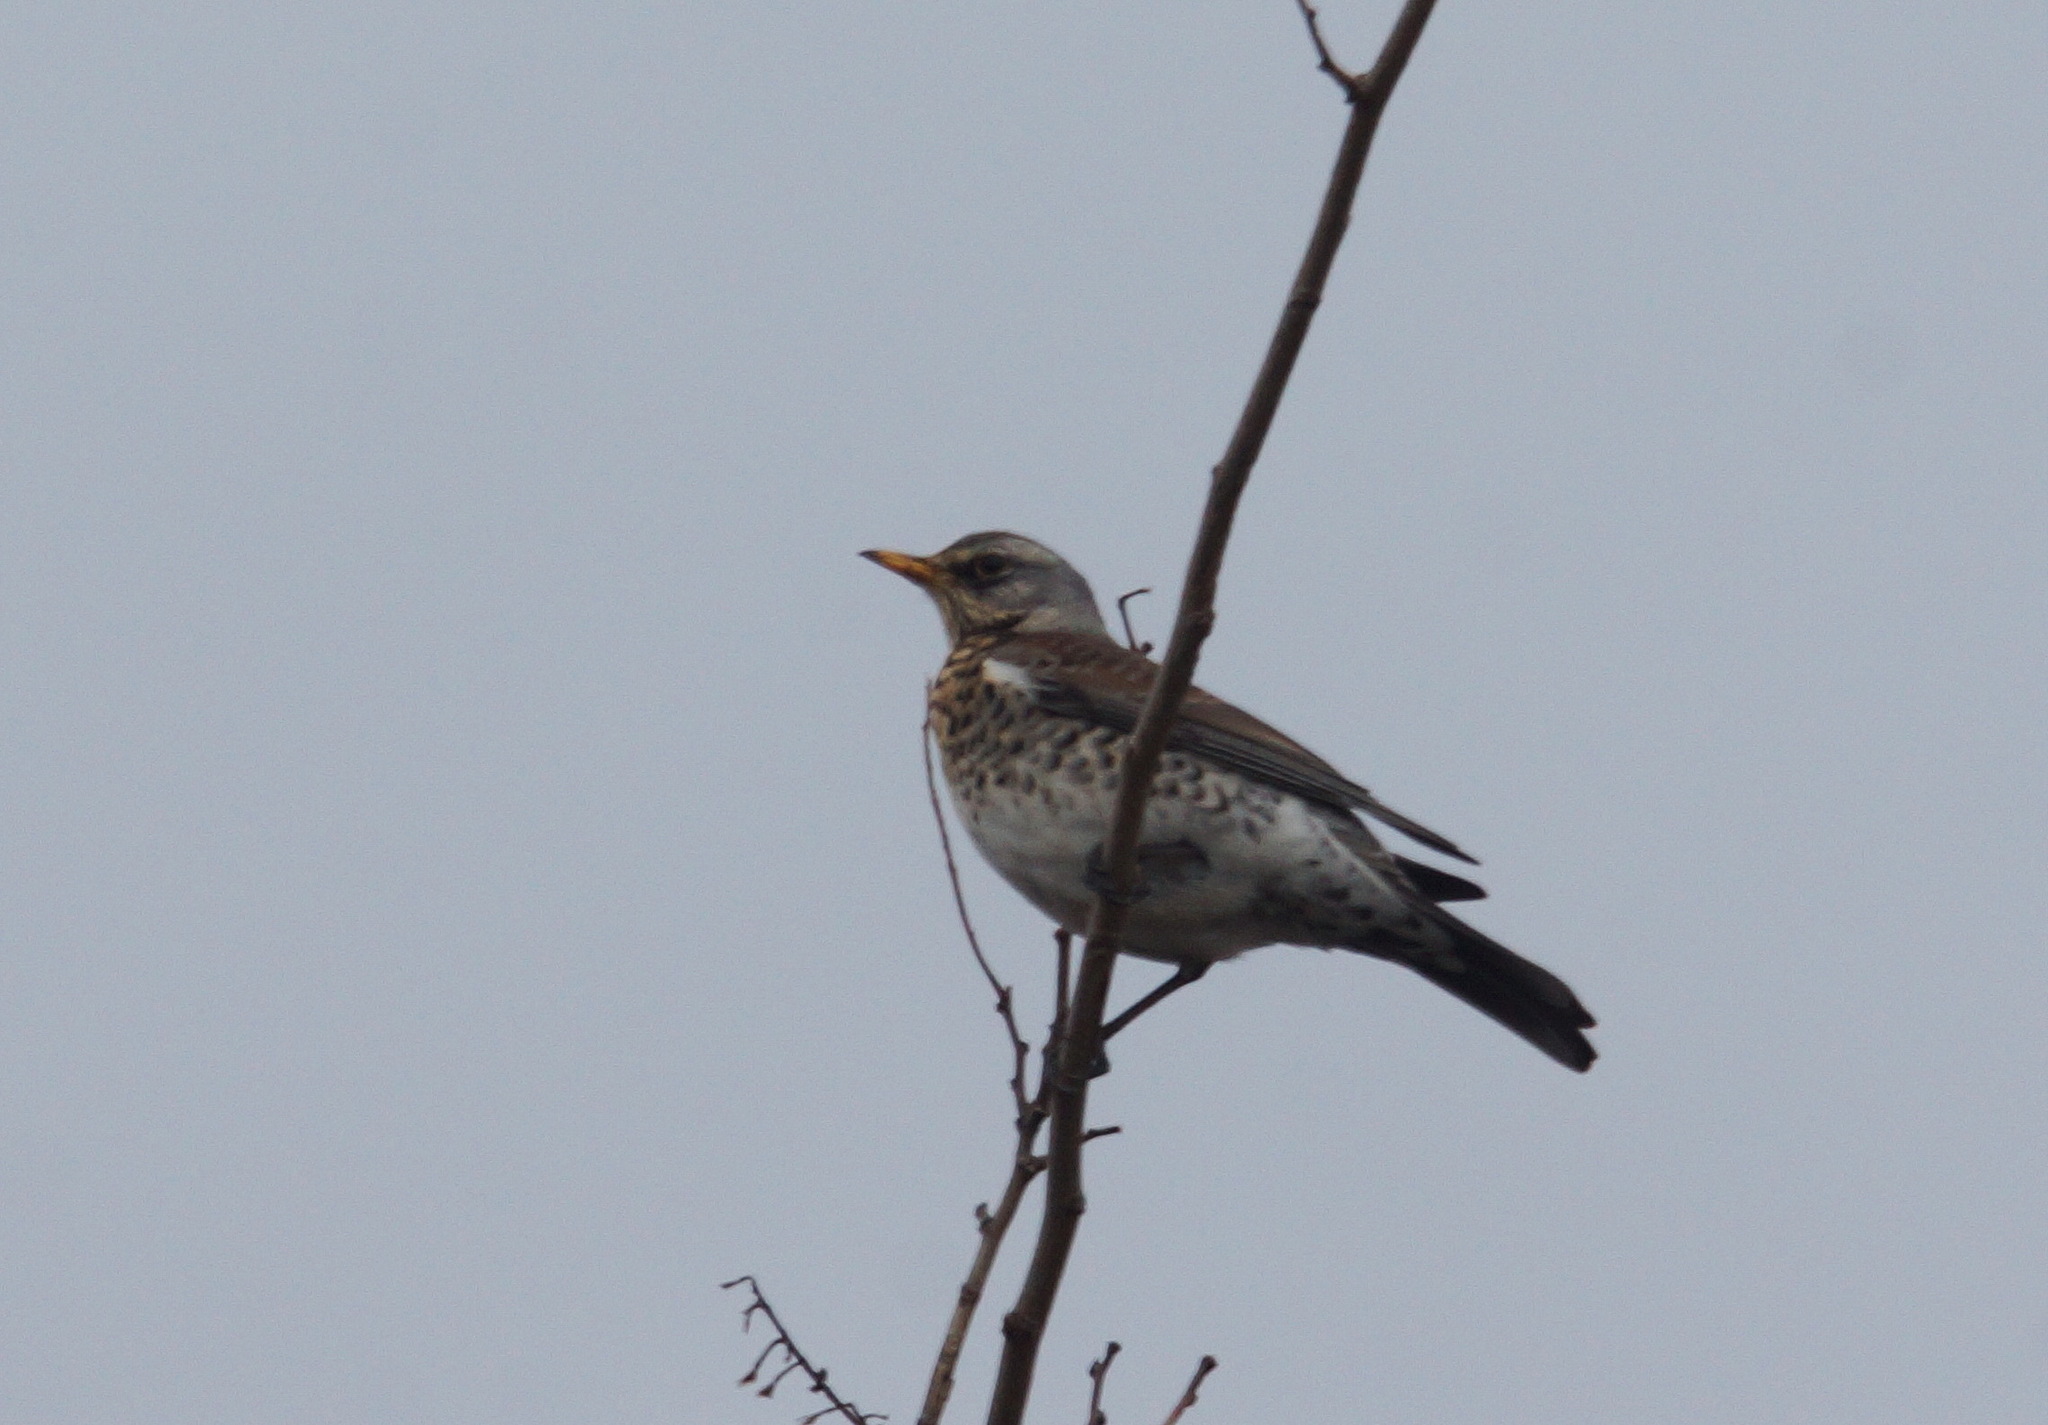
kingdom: Animalia
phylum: Chordata
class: Aves
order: Passeriformes
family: Turdidae
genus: Turdus
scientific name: Turdus pilaris
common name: Fieldfare
